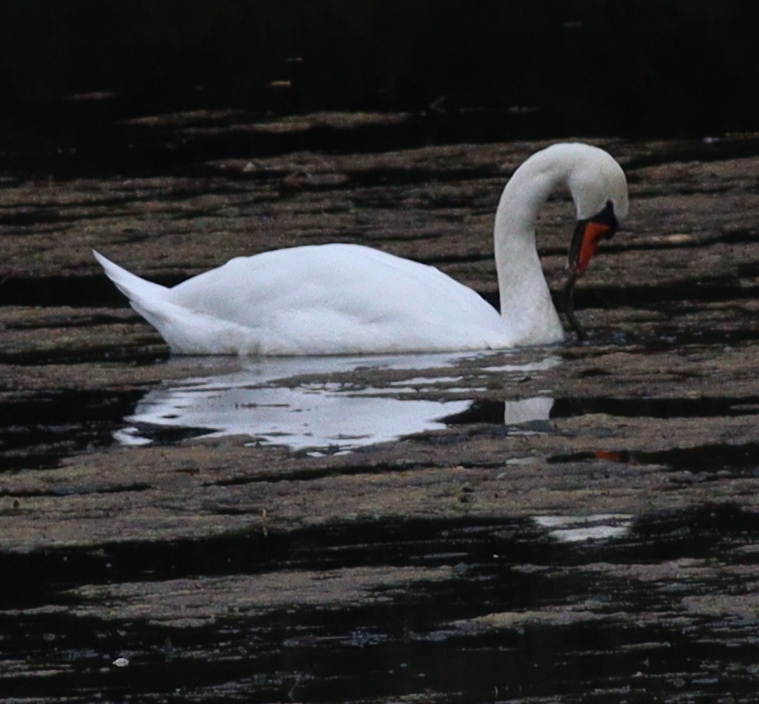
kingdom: Animalia
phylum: Chordata
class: Aves
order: Anseriformes
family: Anatidae
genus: Cygnus
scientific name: Cygnus olor
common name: Mute swan
